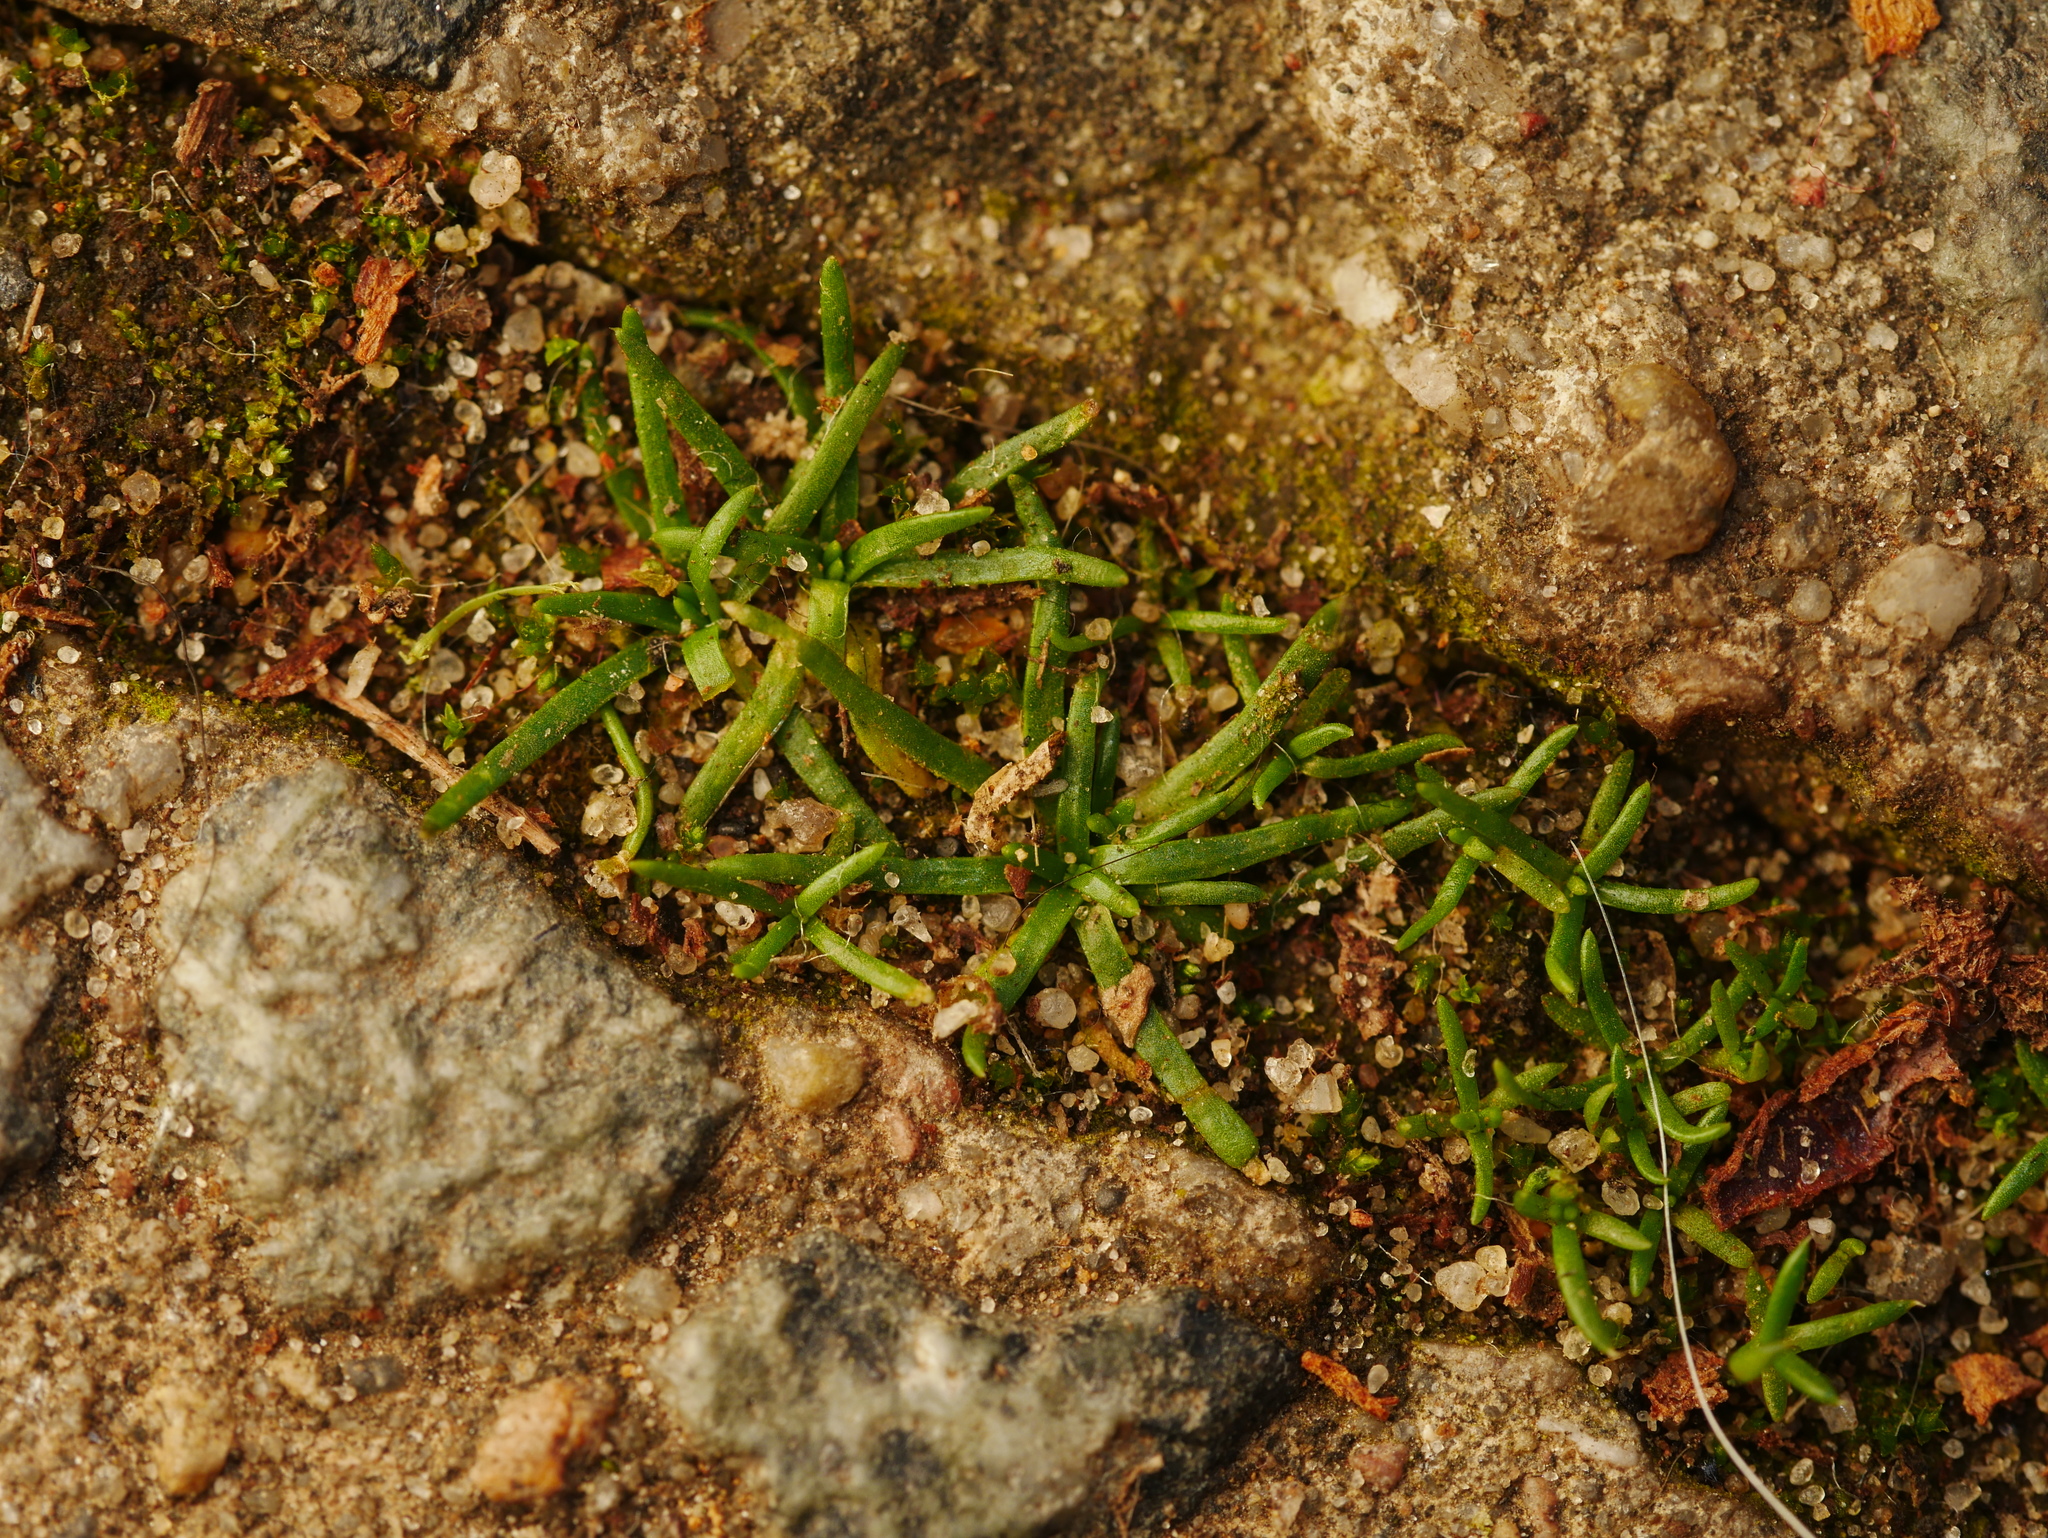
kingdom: Plantae
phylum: Tracheophyta
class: Magnoliopsida
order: Caryophyllales
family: Caryophyllaceae
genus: Sagina
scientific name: Sagina procumbens
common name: Procumbent pearlwort
